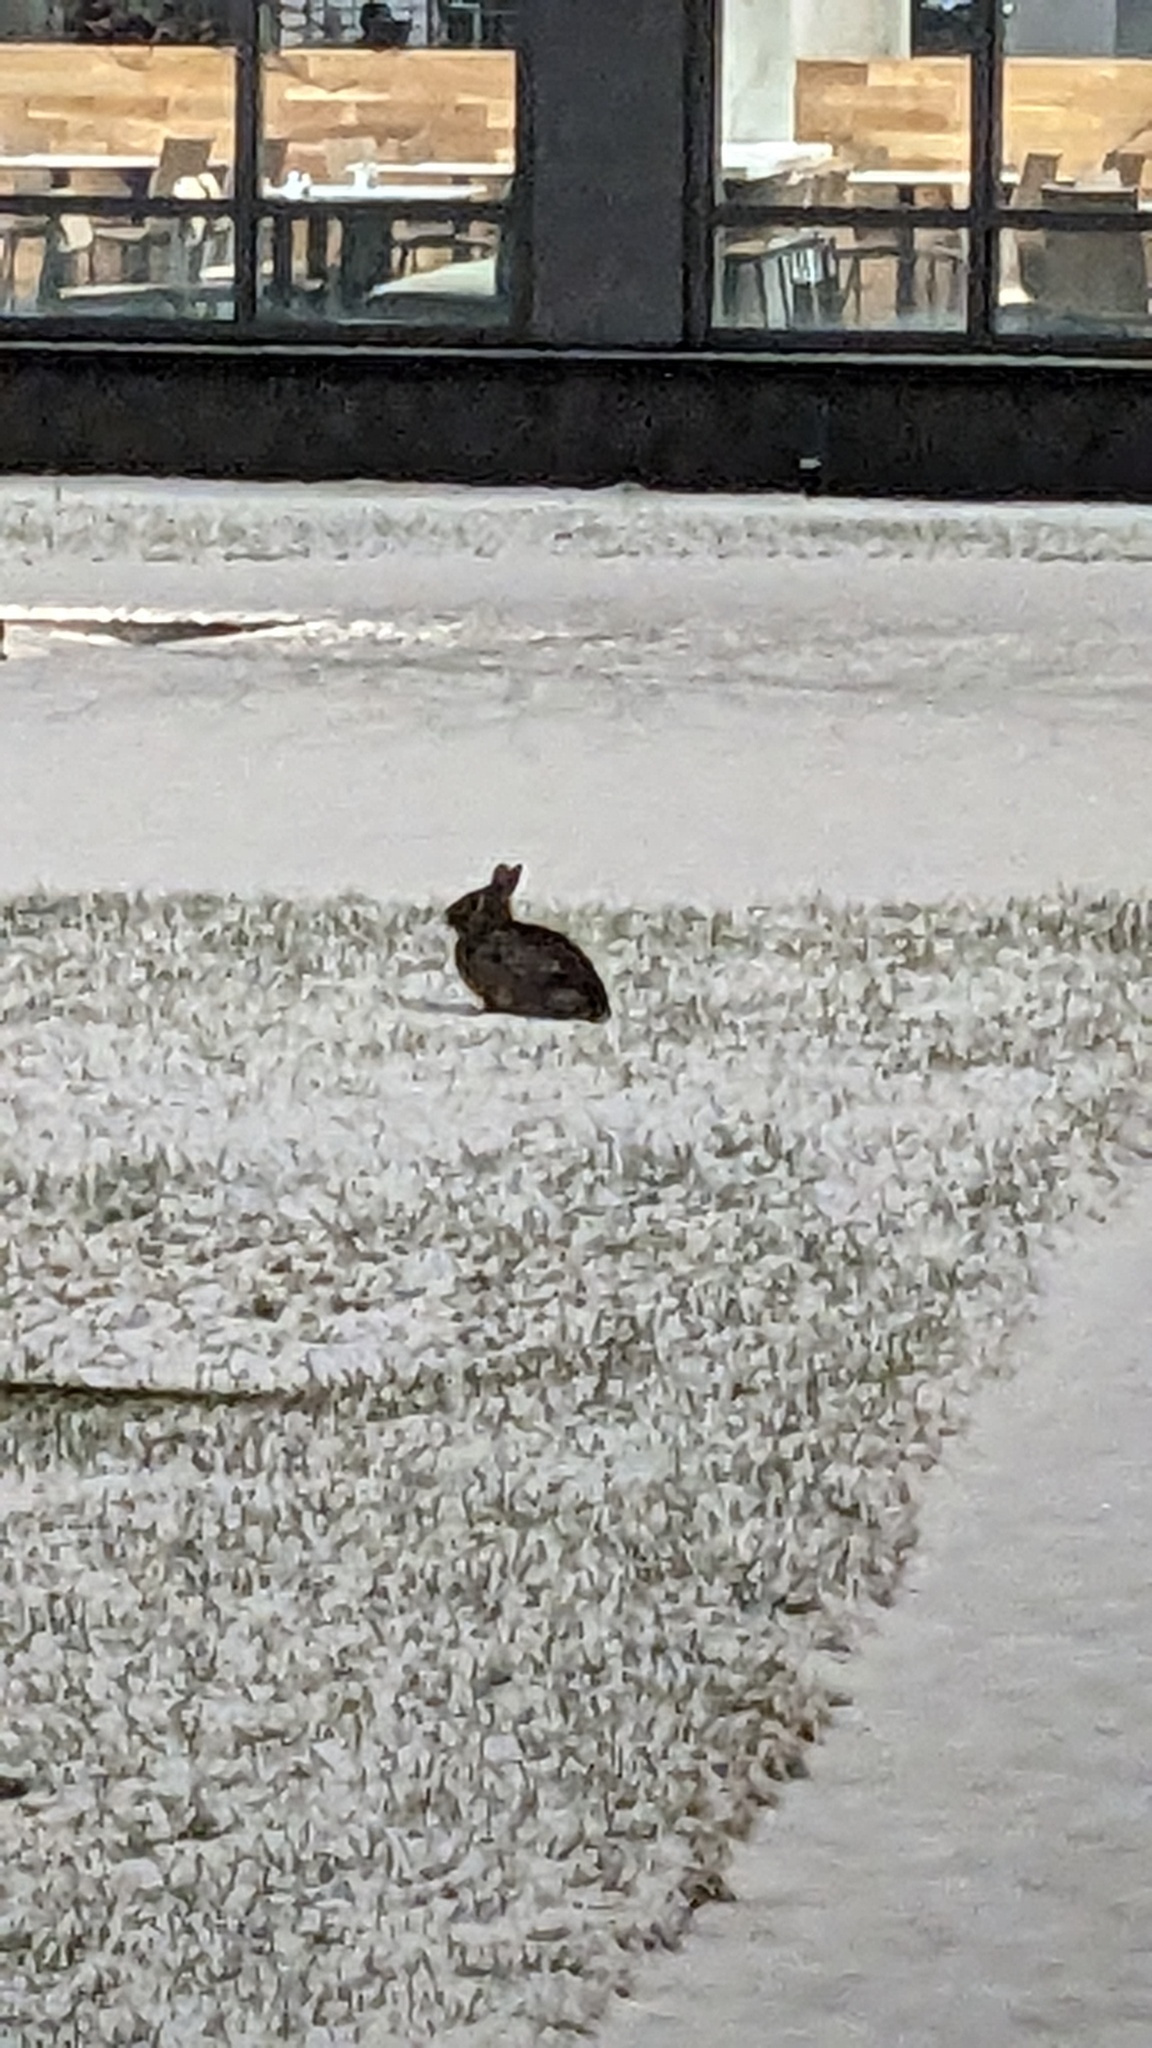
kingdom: Animalia
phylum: Chordata
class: Mammalia
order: Lagomorpha
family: Leporidae
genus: Sylvilagus
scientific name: Sylvilagus floridanus
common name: Eastern cottontail
